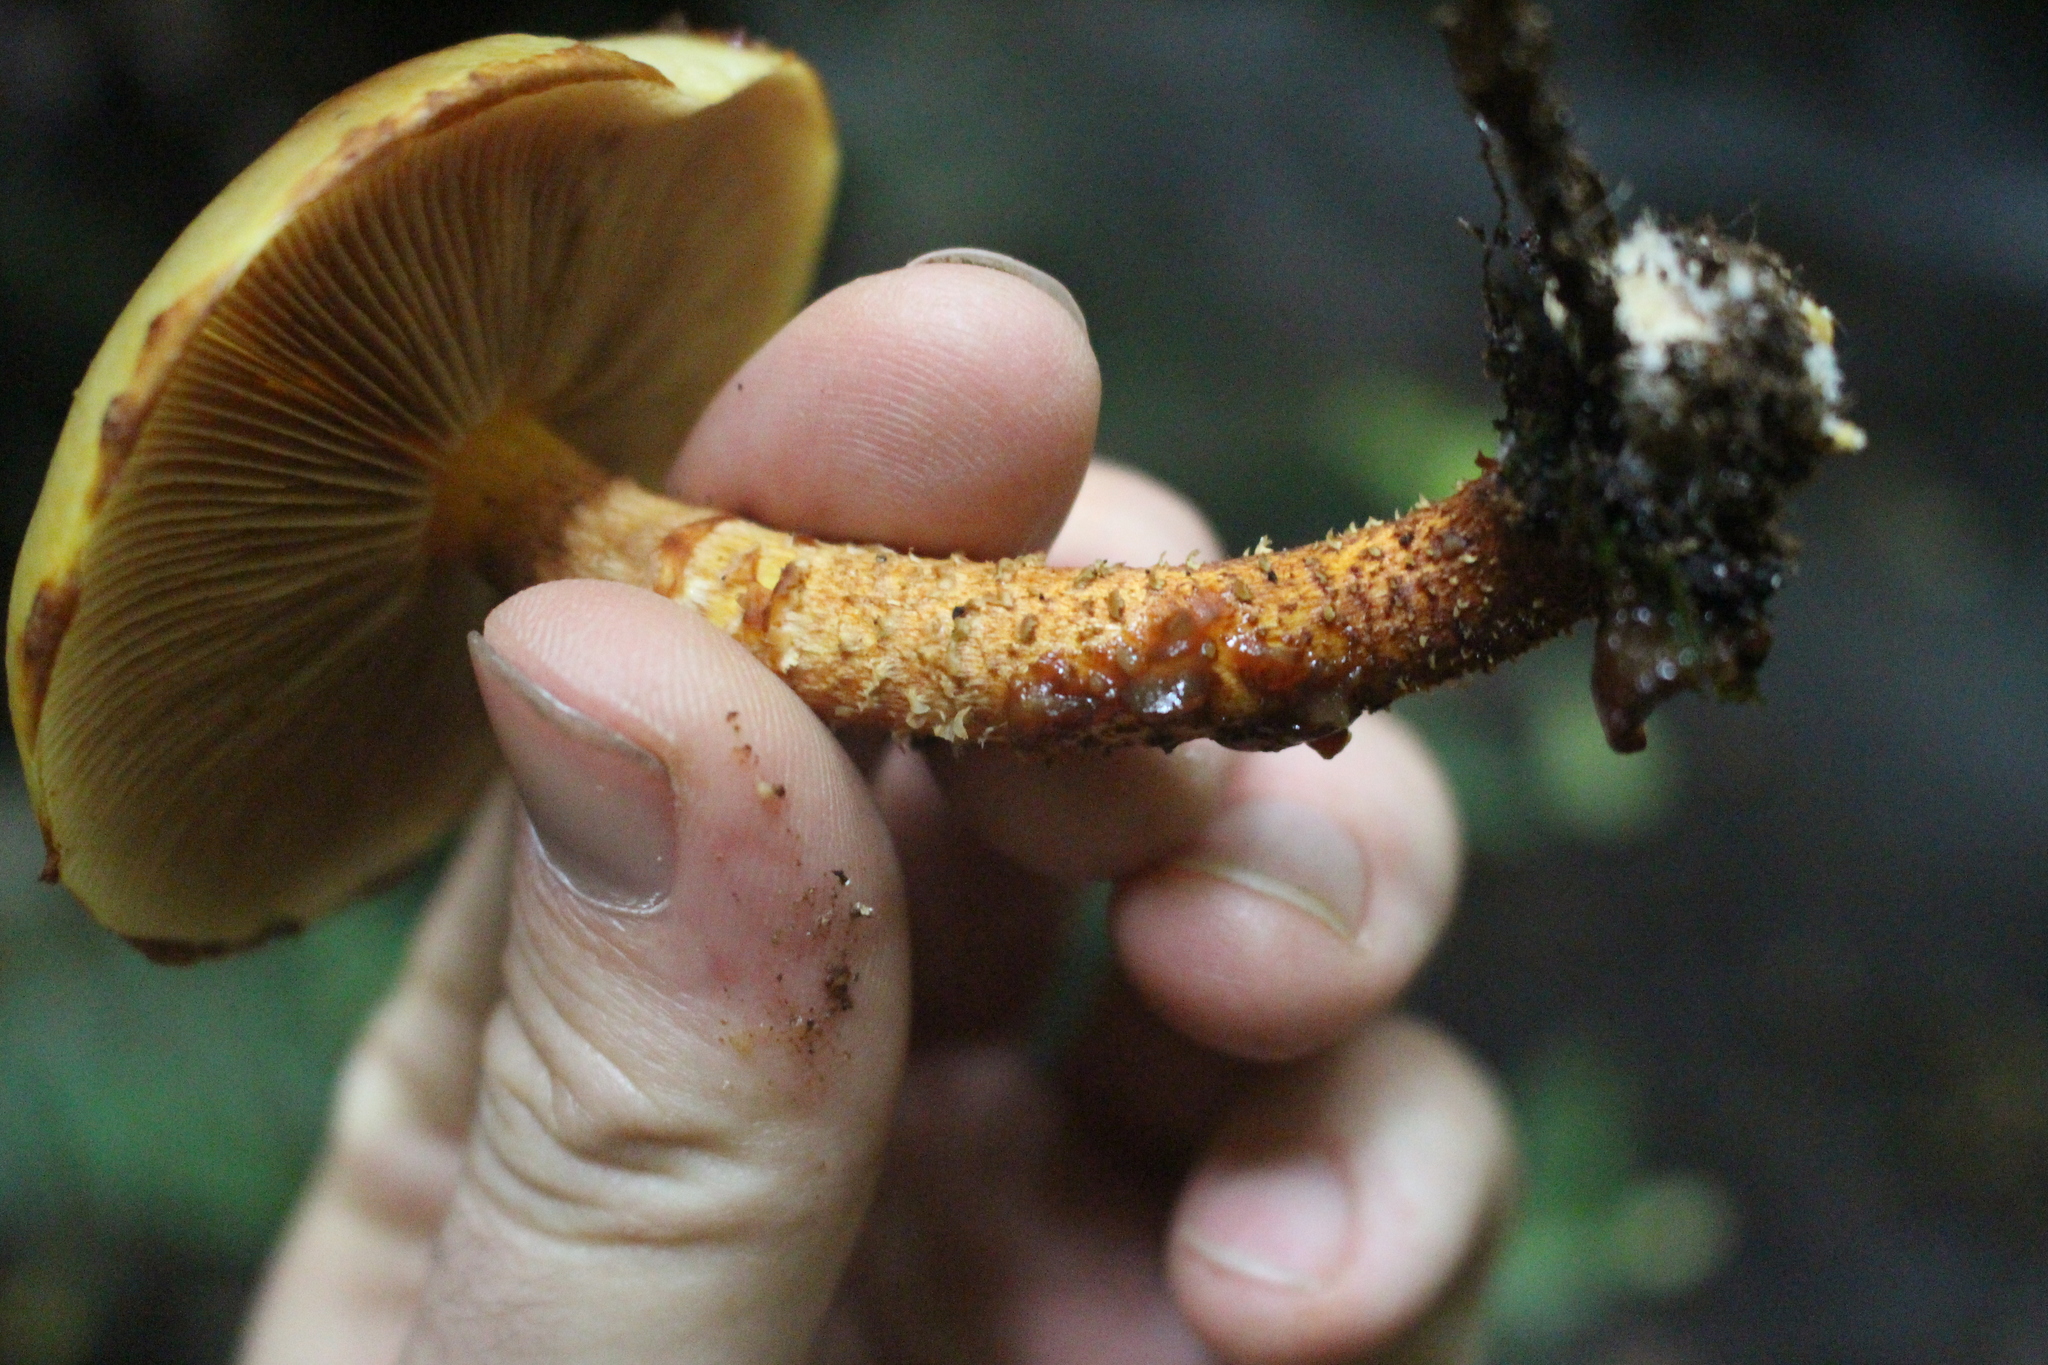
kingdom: Fungi
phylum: Basidiomycota
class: Agaricomycetes
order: Agaricales
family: Strophariaceae
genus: Pholiota
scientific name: Pholiota glutinosa
